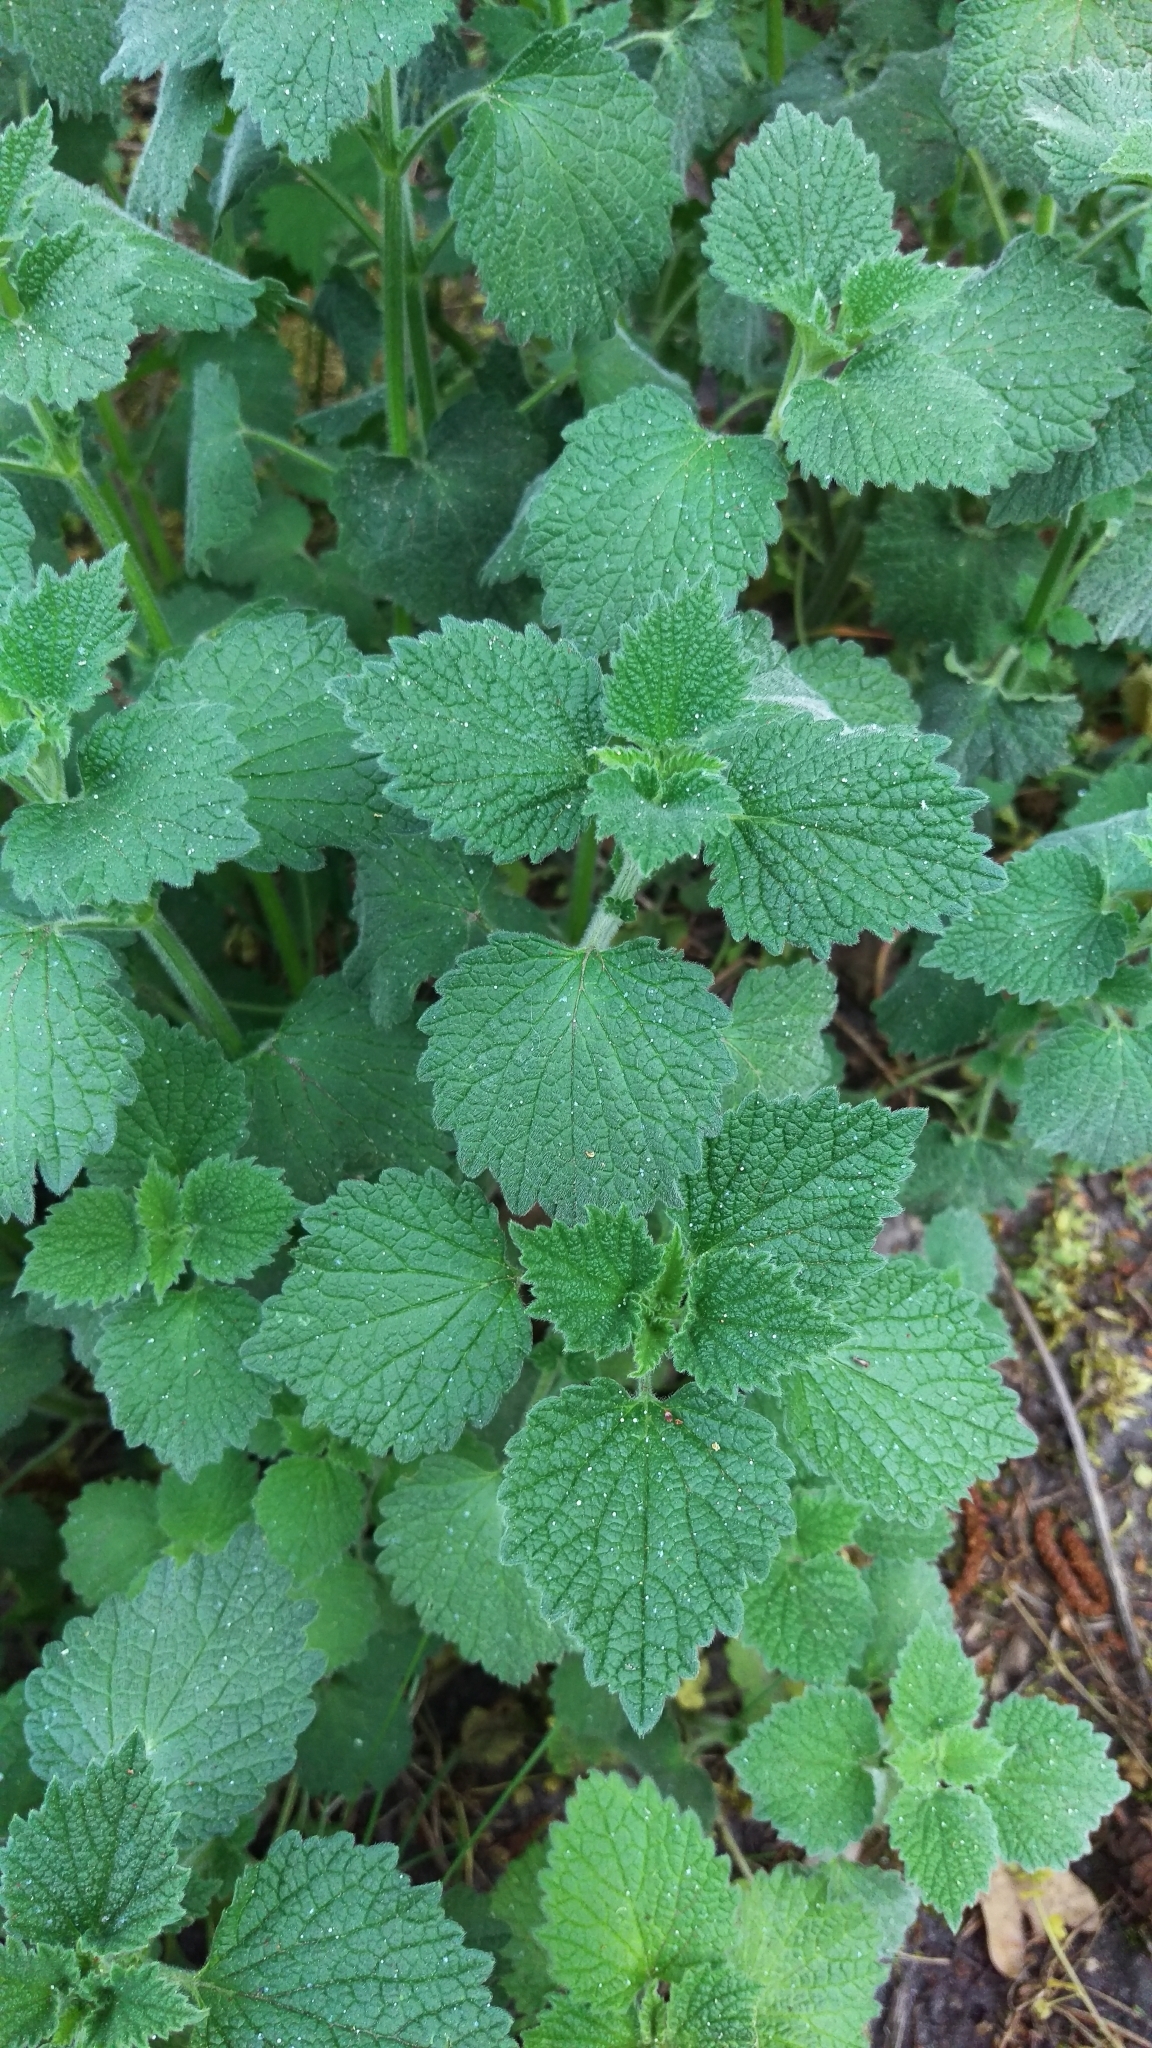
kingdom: Plantae
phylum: Tracheophyta
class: Magnoliopsida
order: Lamiales
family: Lamiaceae
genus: Ballota
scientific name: Ballota nigra
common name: Black horehound
